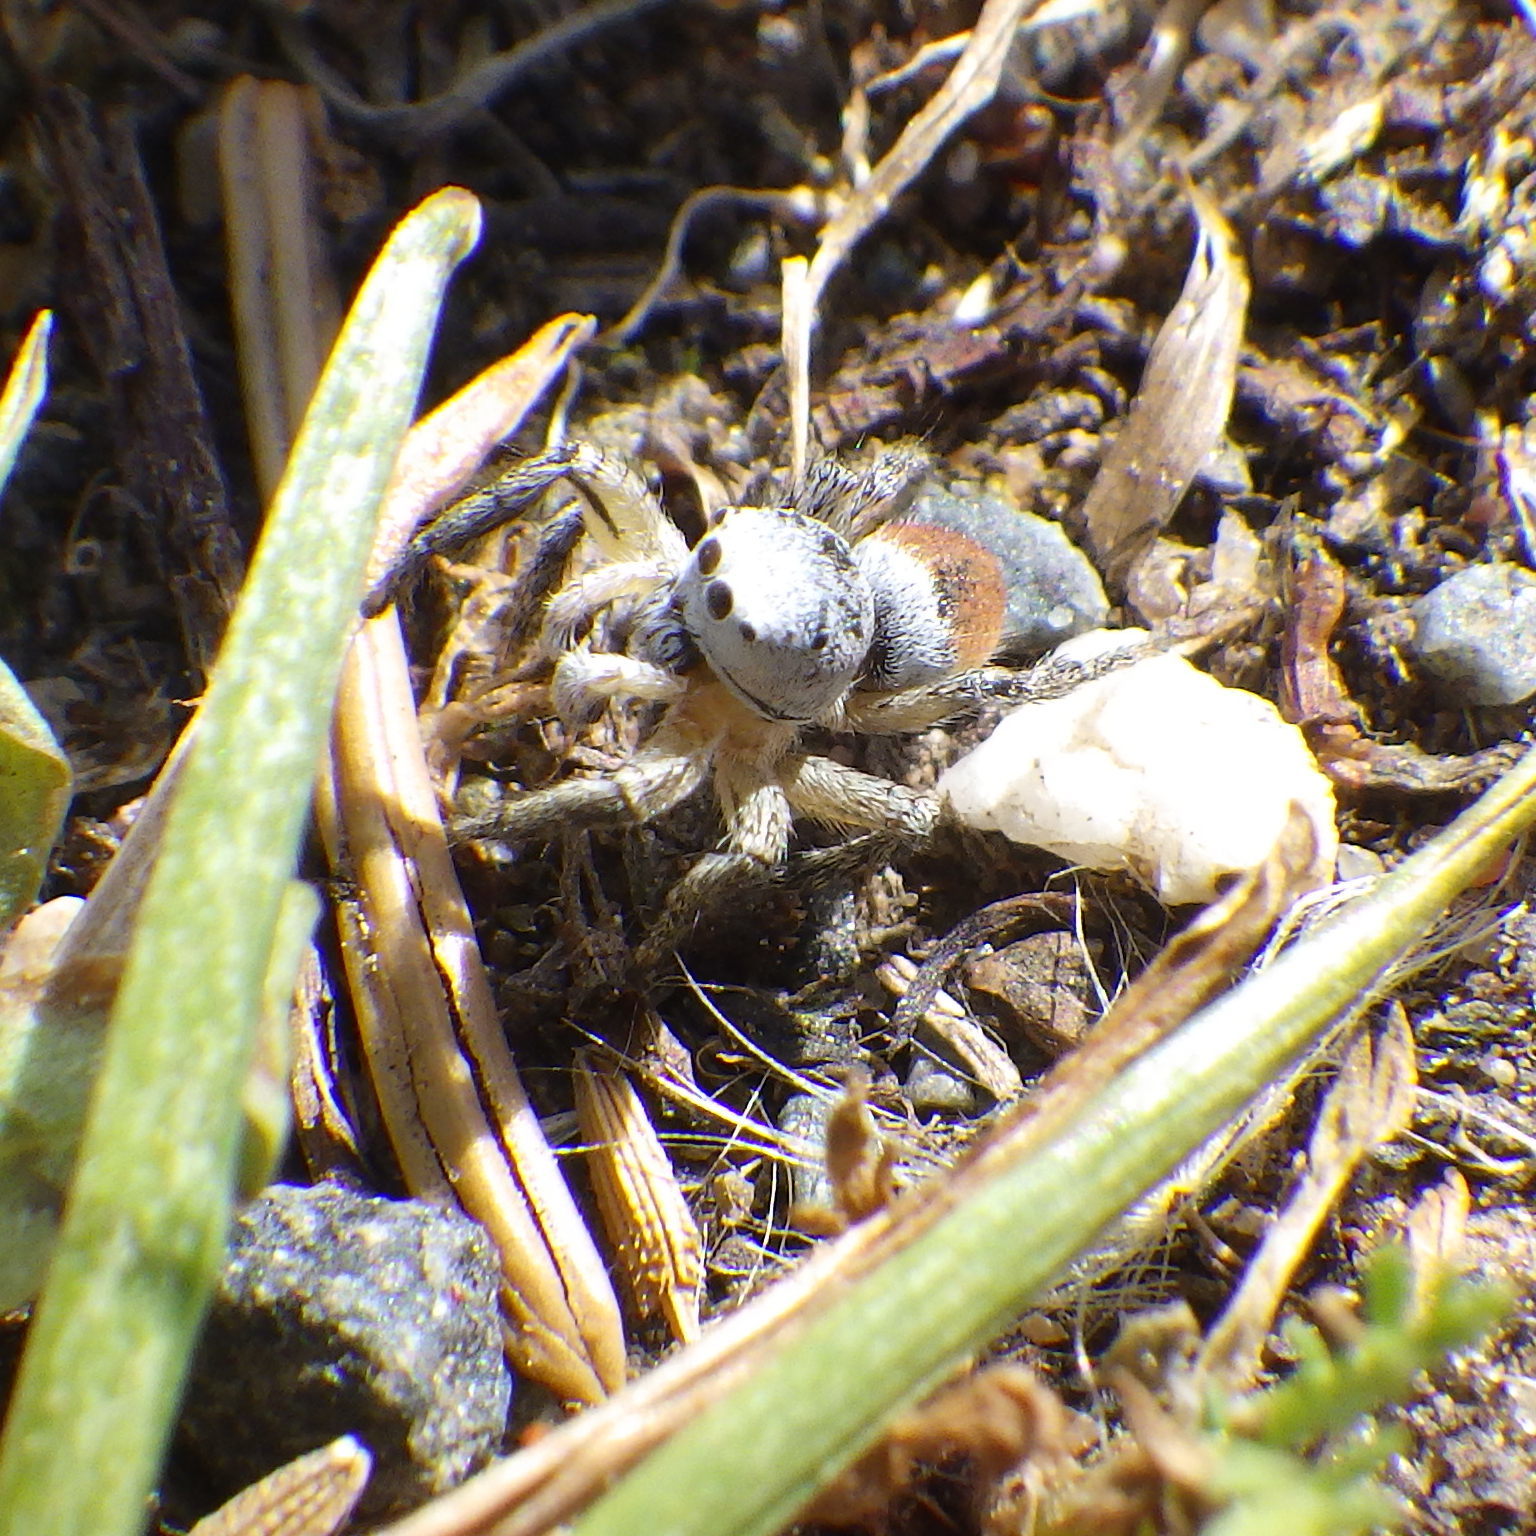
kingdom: Animalia
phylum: Arthropoda
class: Arachnida
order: Araneae
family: Salticidae
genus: Habronattus
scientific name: Habronattus decorus
